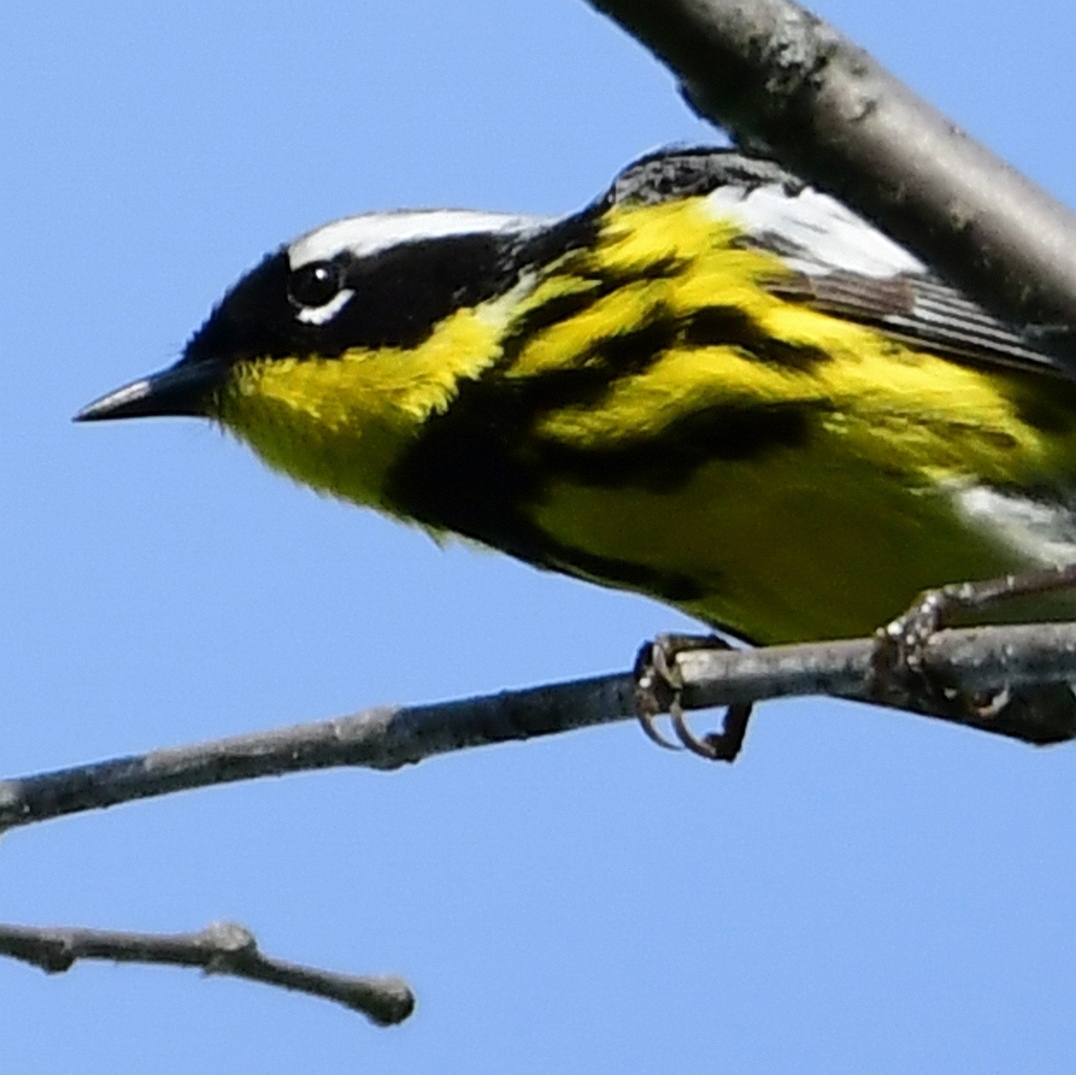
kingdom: Animalia
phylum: Chordata
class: Aves
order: Passeriformes
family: Parulidae
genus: Setophaga
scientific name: Setophaga magnolia
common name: Magnolia warbler
